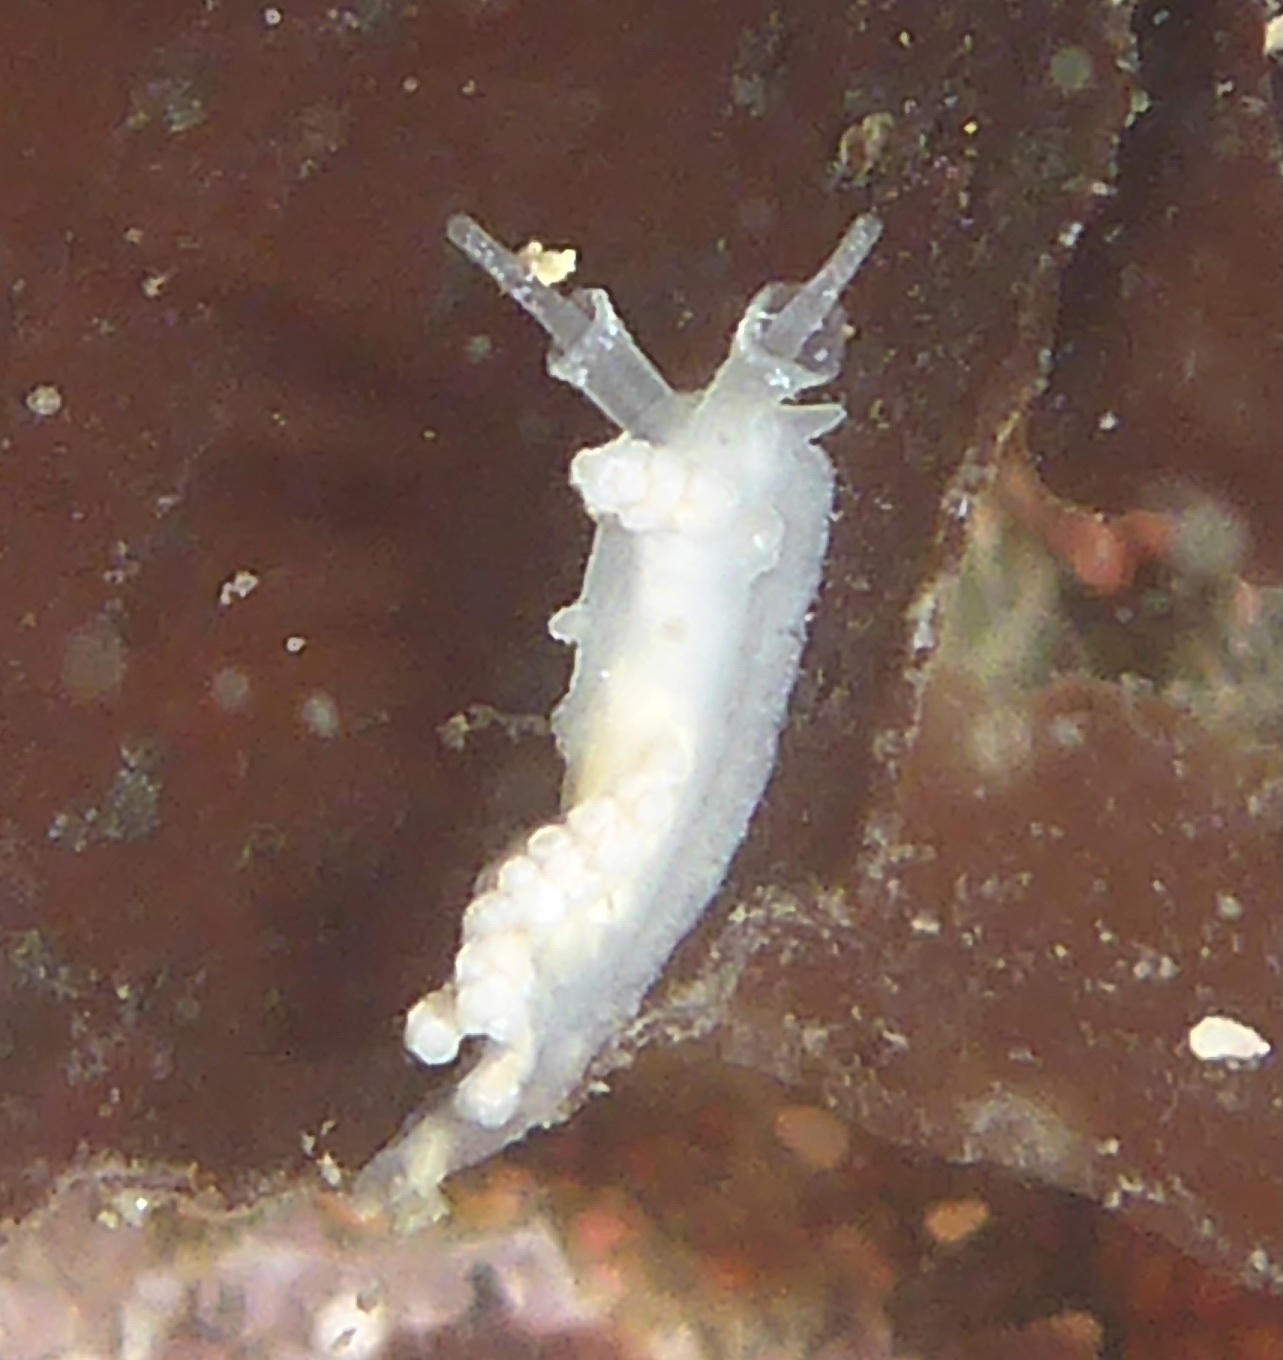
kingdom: Animalia
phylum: Mollusca
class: Gastropoda
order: Nudibranchia
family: Dotidae
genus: Doto
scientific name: Doto amyra
